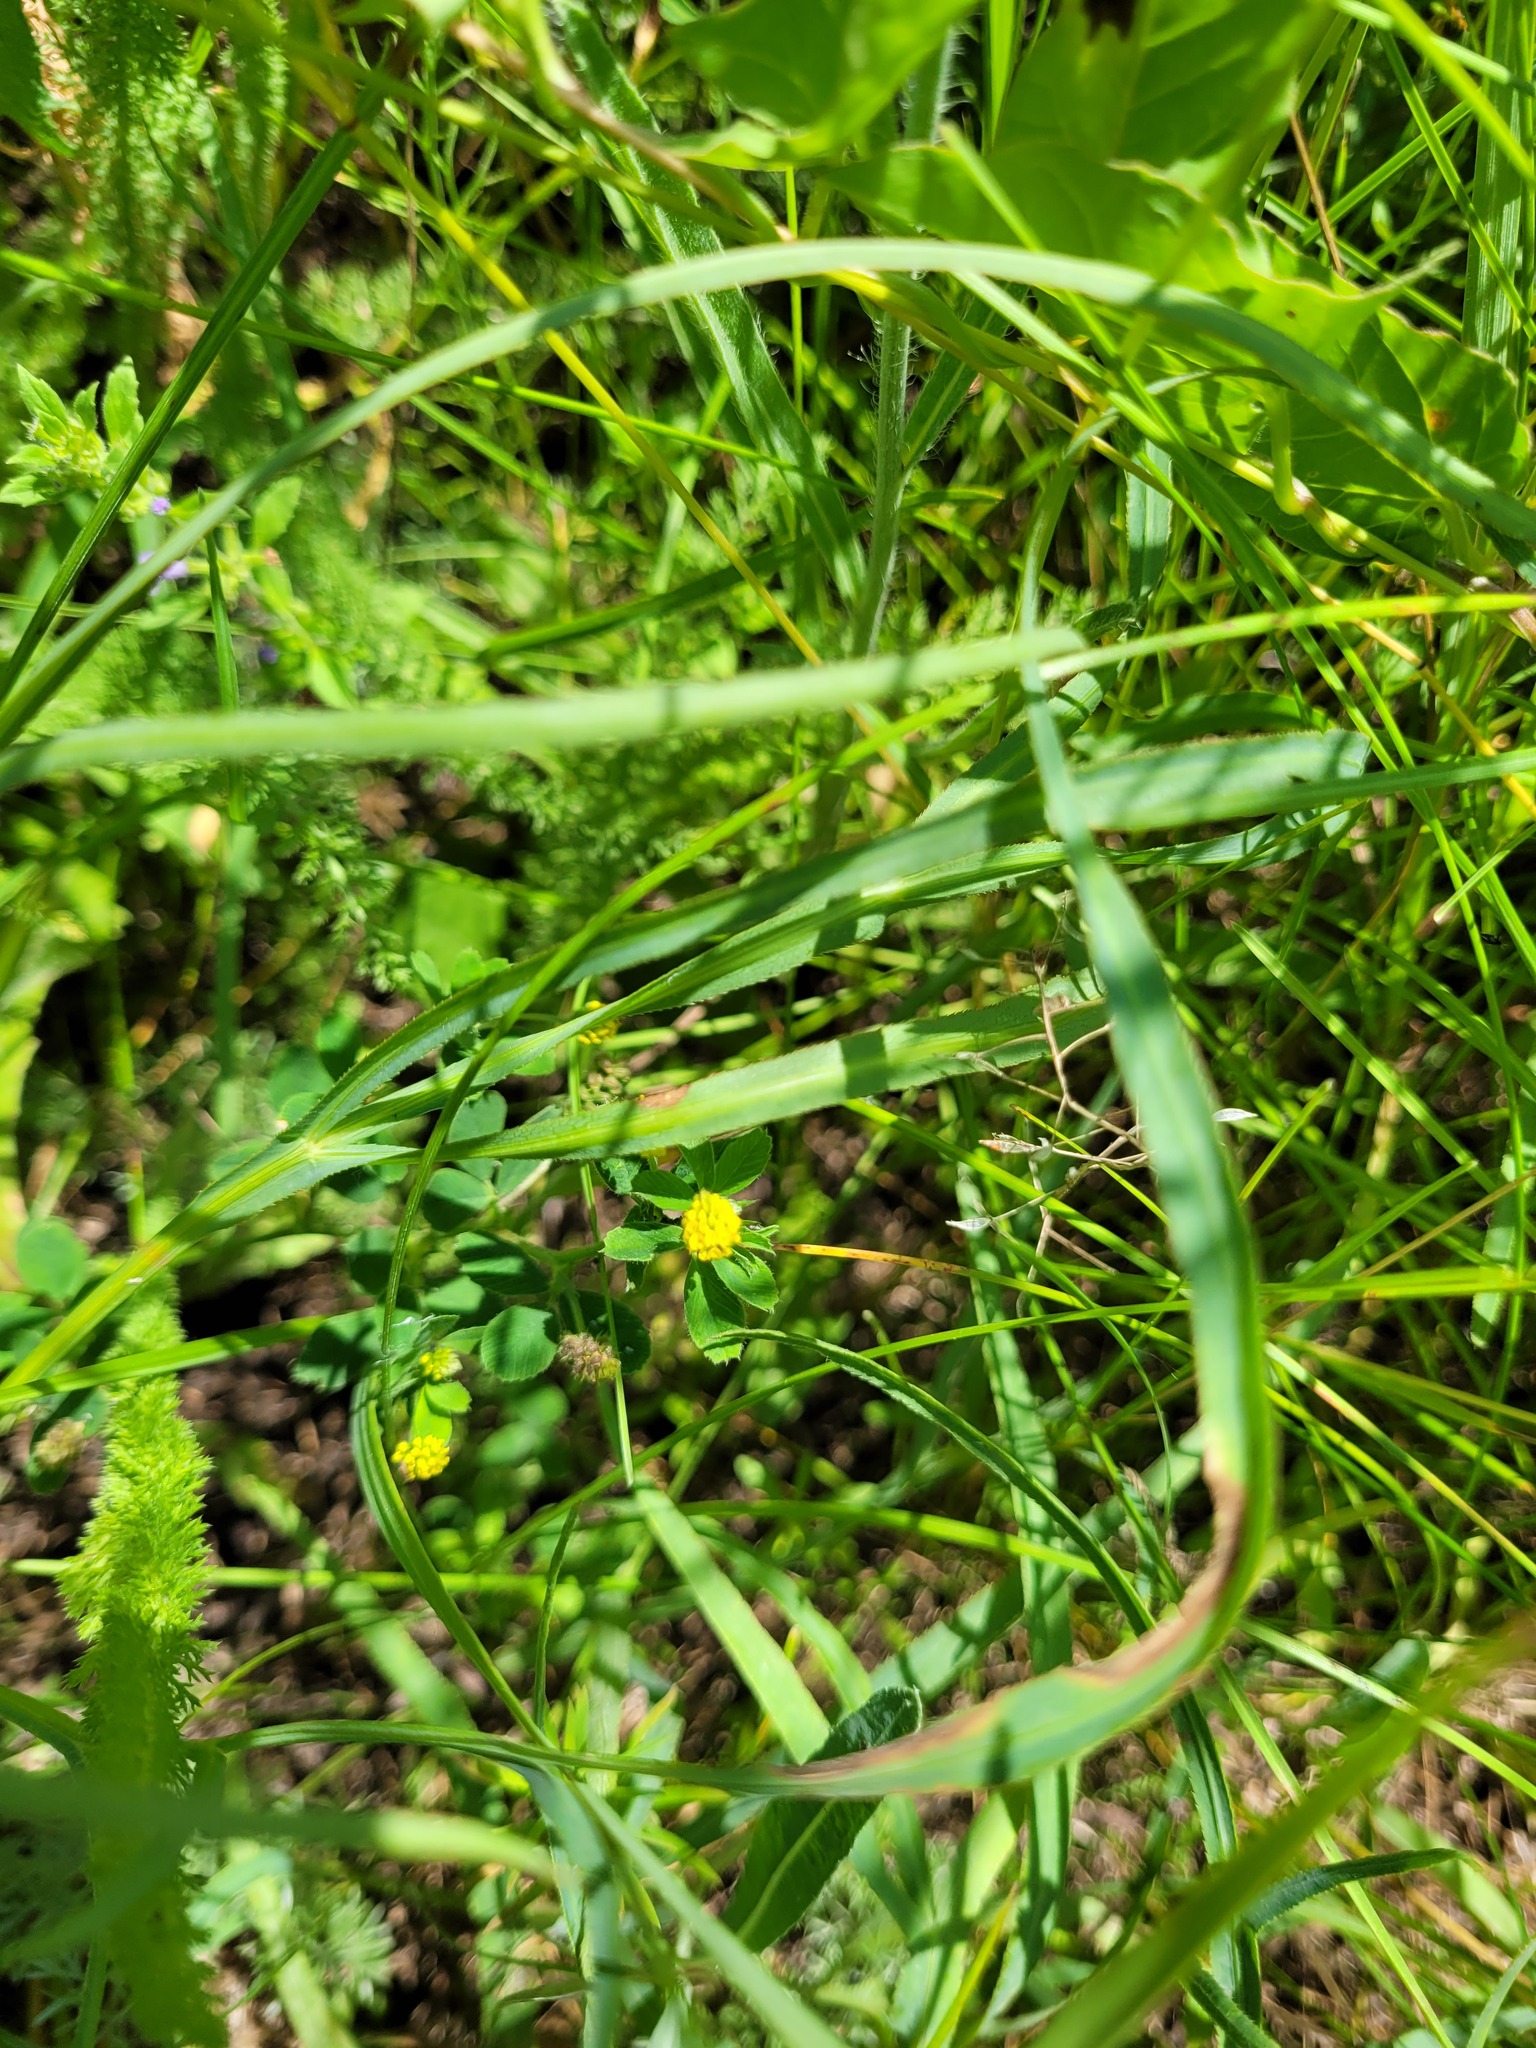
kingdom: Plantae
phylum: Tracheophyta
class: Magnoliopsida
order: Fabales
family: Fabaceae
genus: Medicago
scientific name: Medicago lupulina
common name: Black medick
